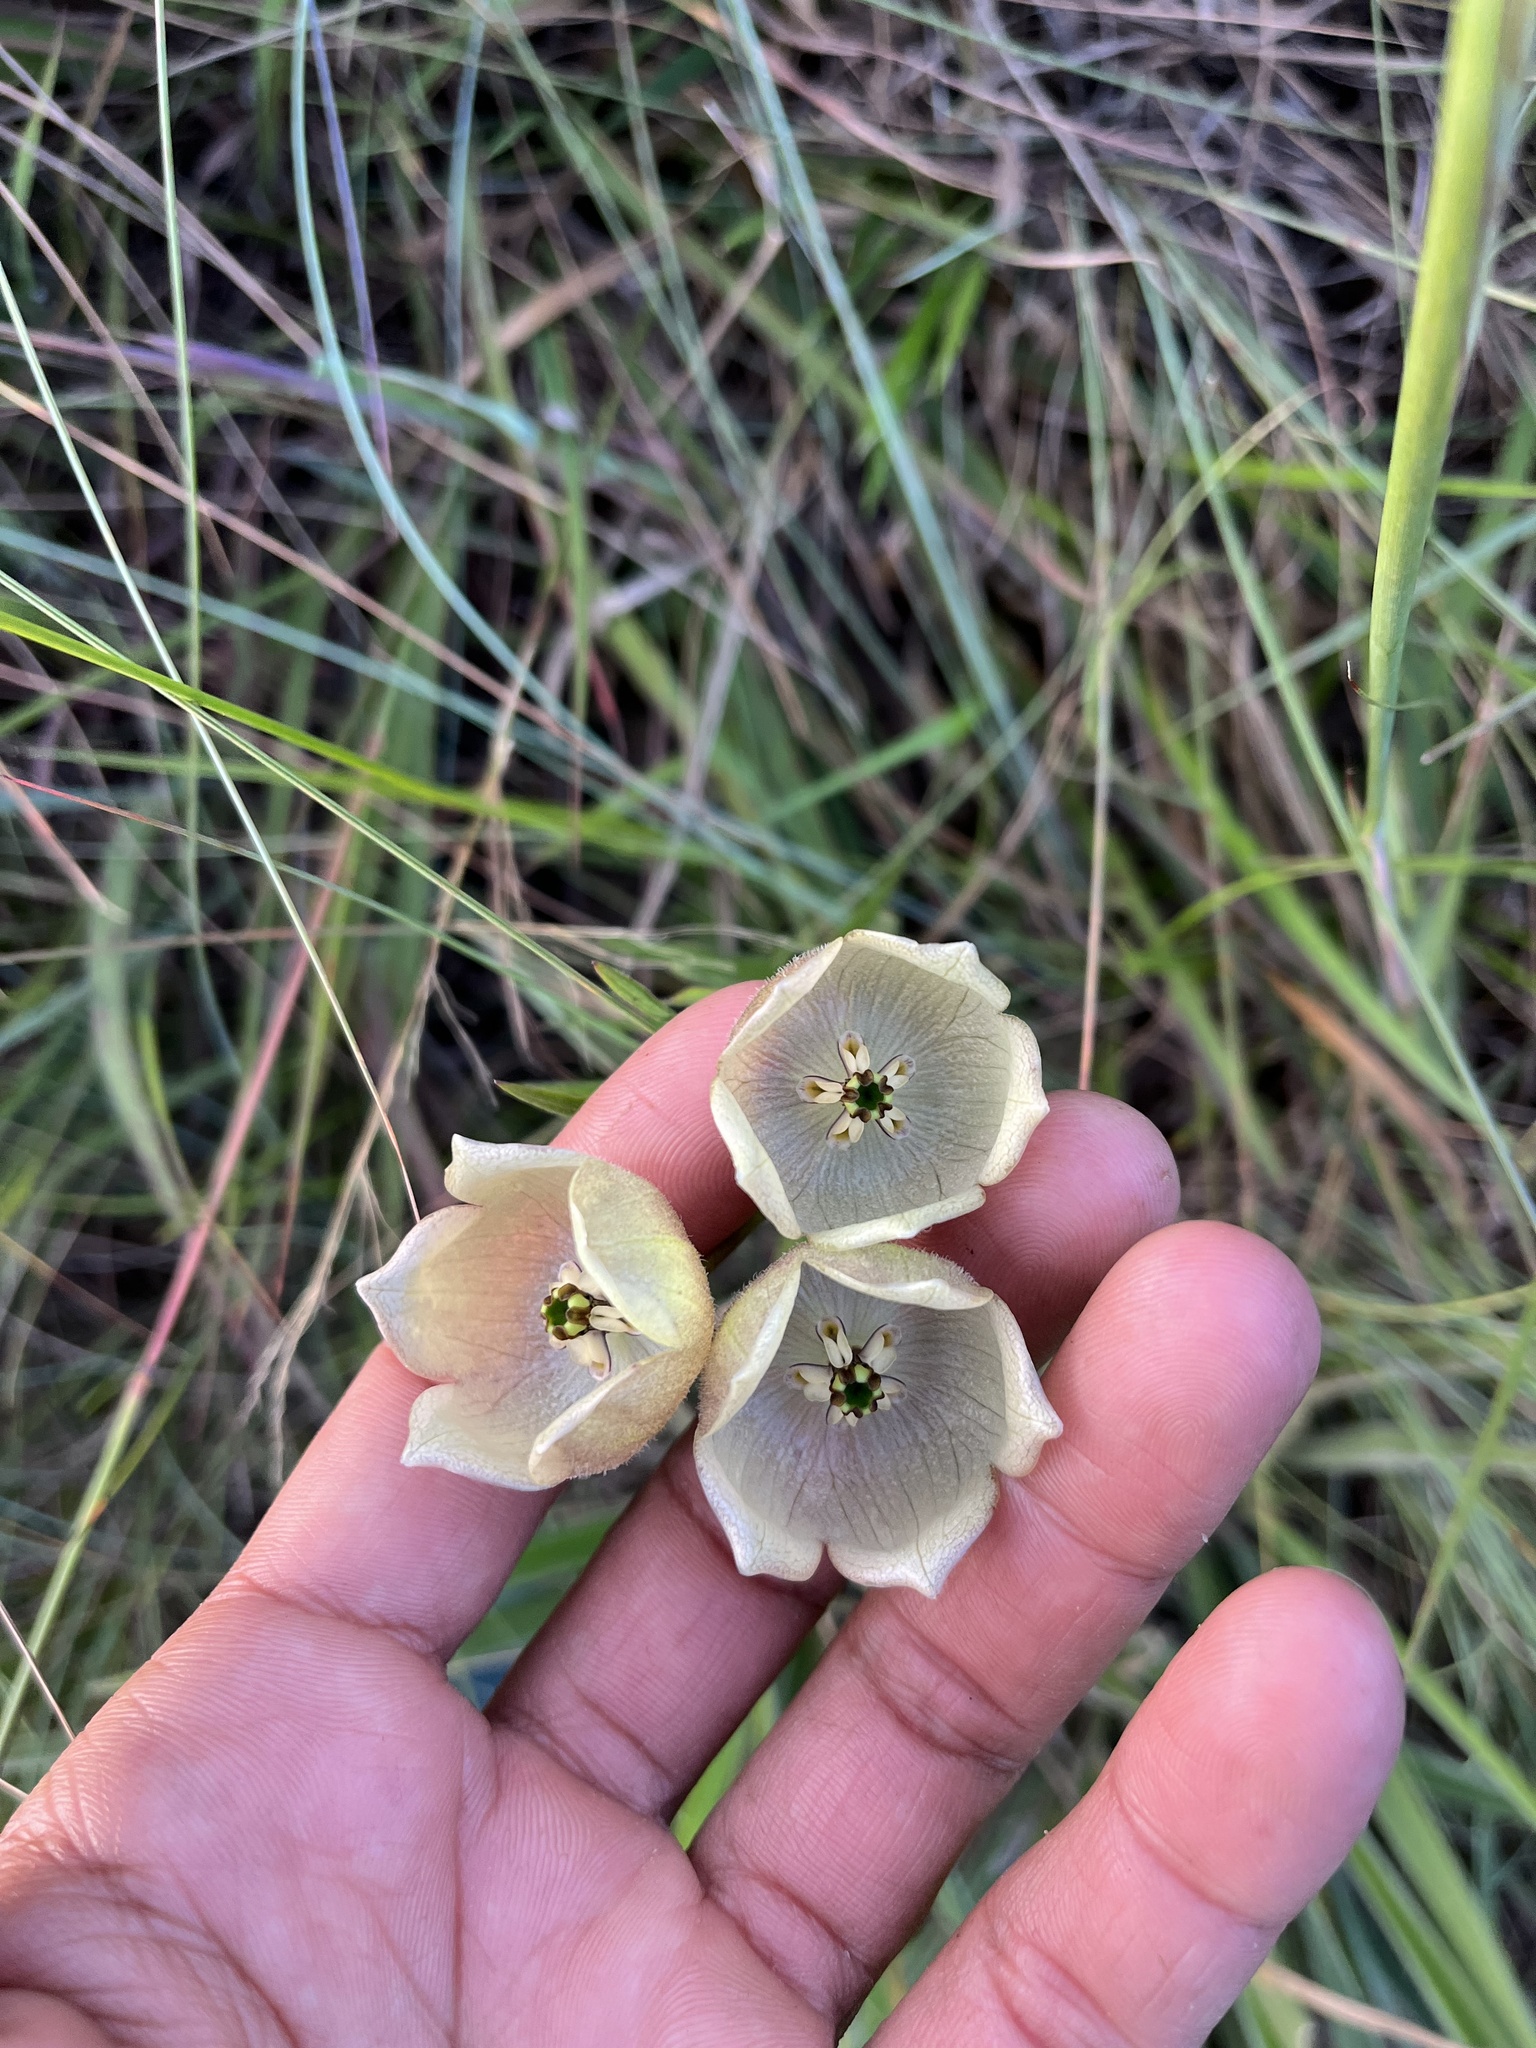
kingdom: Plantae
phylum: Tracheophyta
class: Magnoliopsida
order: Gentianales
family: Apocynaceae
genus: Pachycarpus
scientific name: Pachycarpus campanulatus
